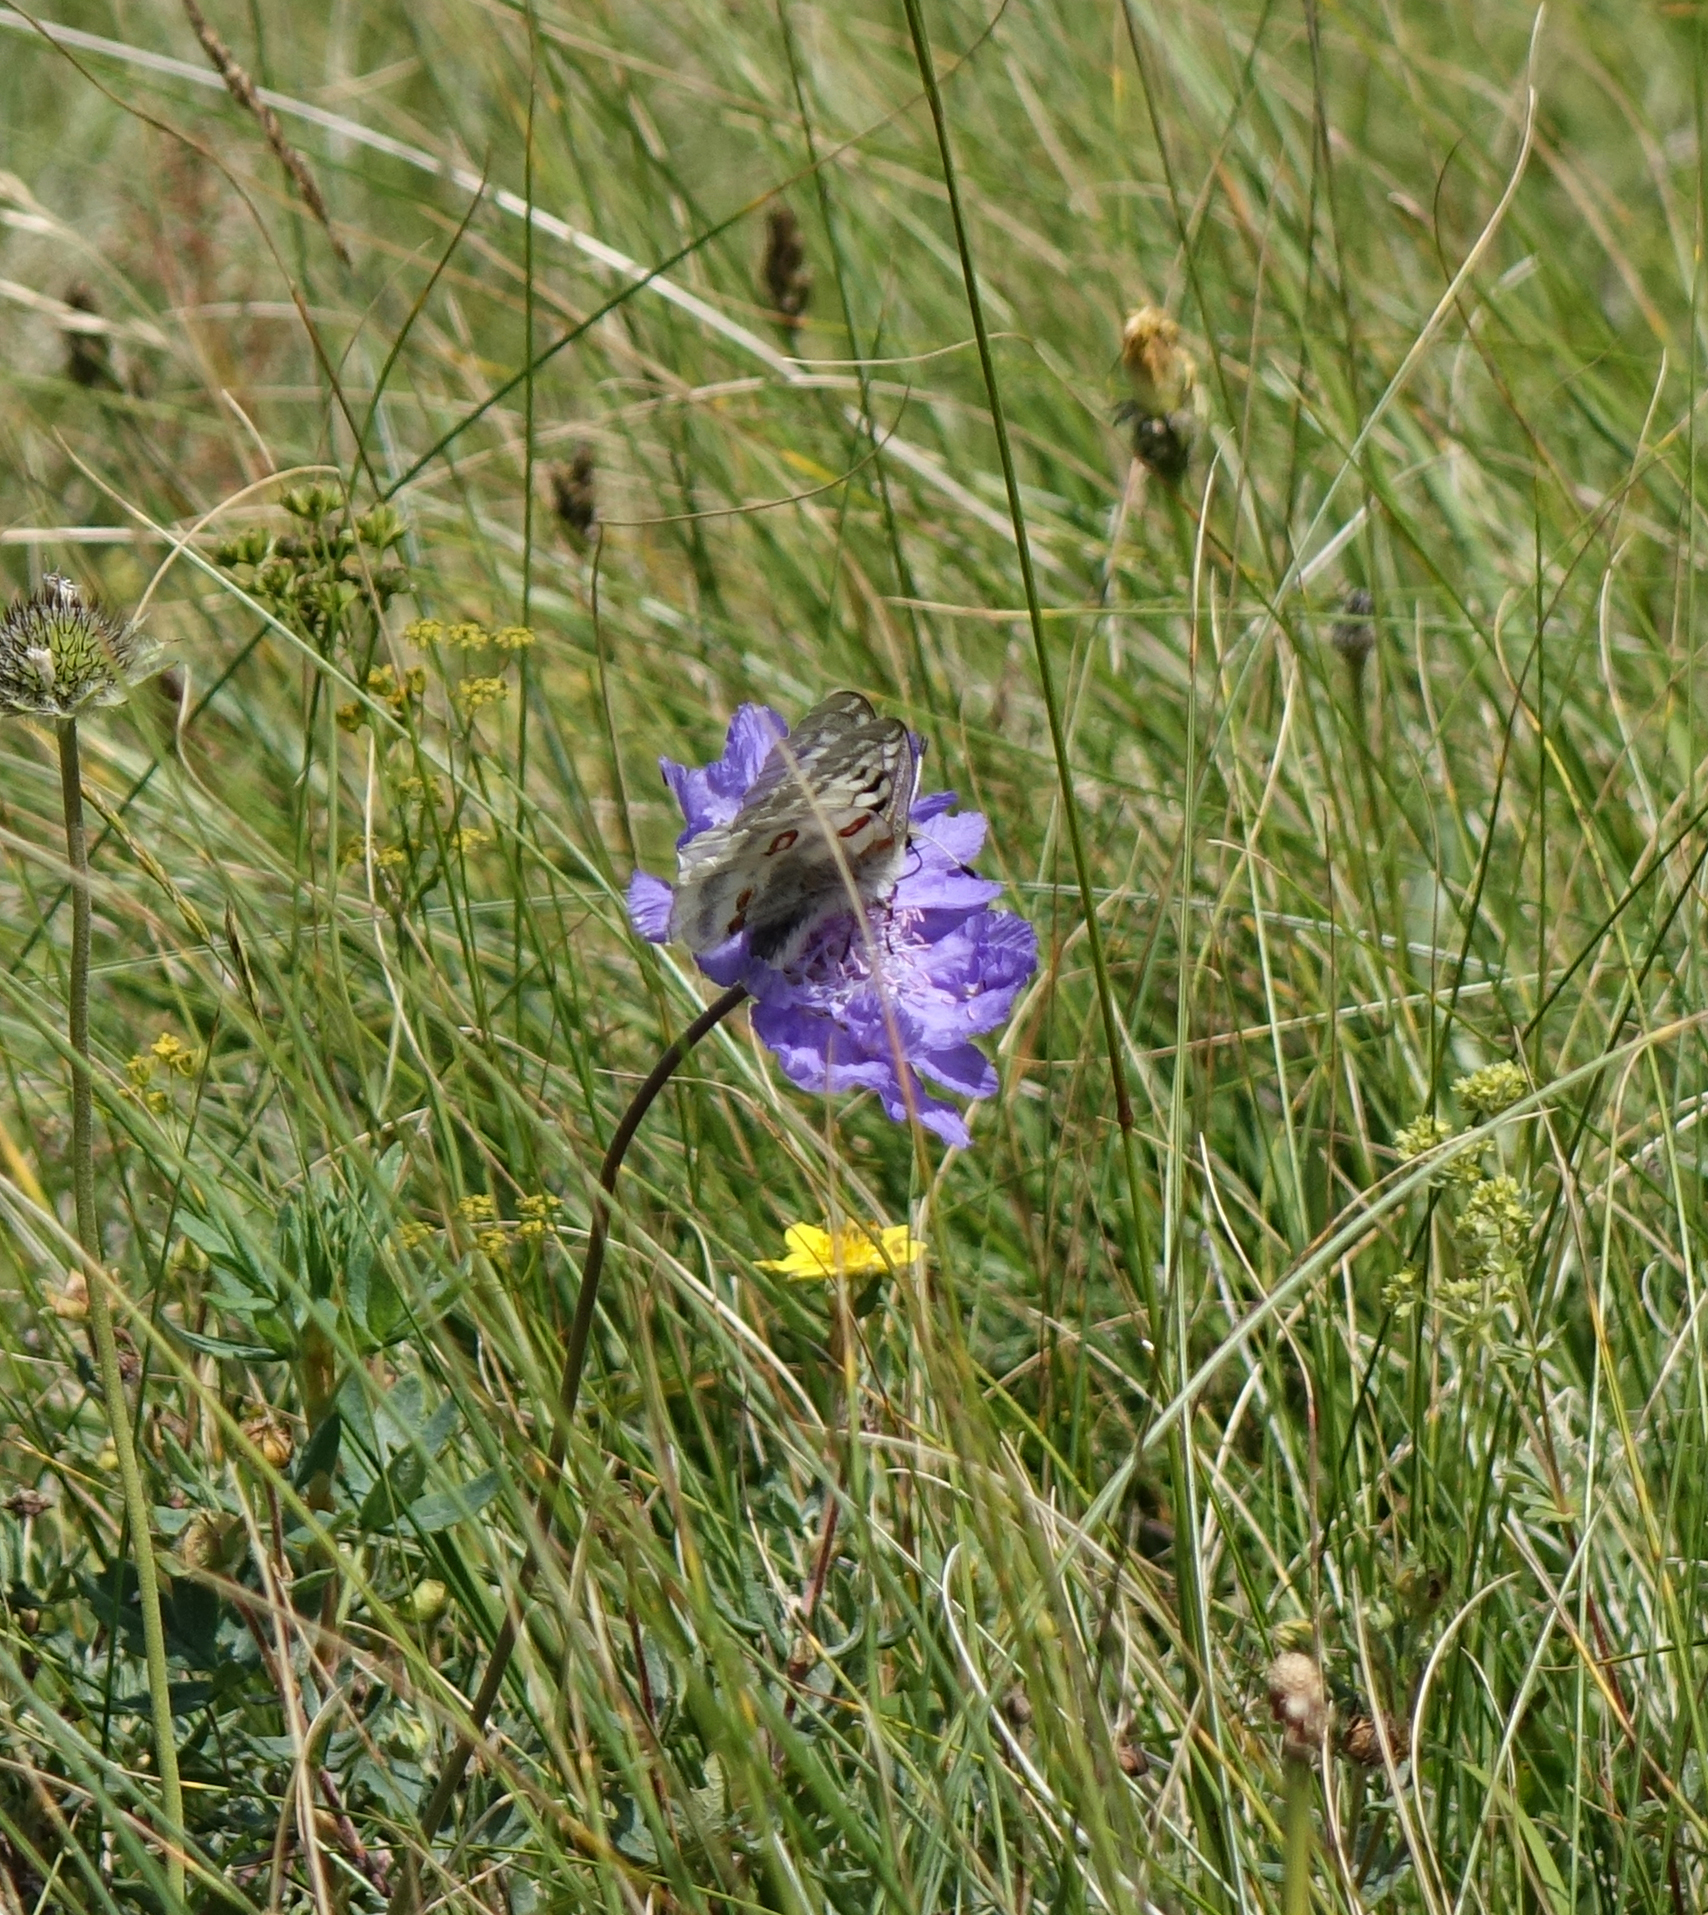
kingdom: Plantae
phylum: Tracheophyta
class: Magnoliopsida
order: Dipsacales
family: Caprifoliaceae
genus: Lomelosia
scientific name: Lomelosia caucasica
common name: Pincushion-flower
